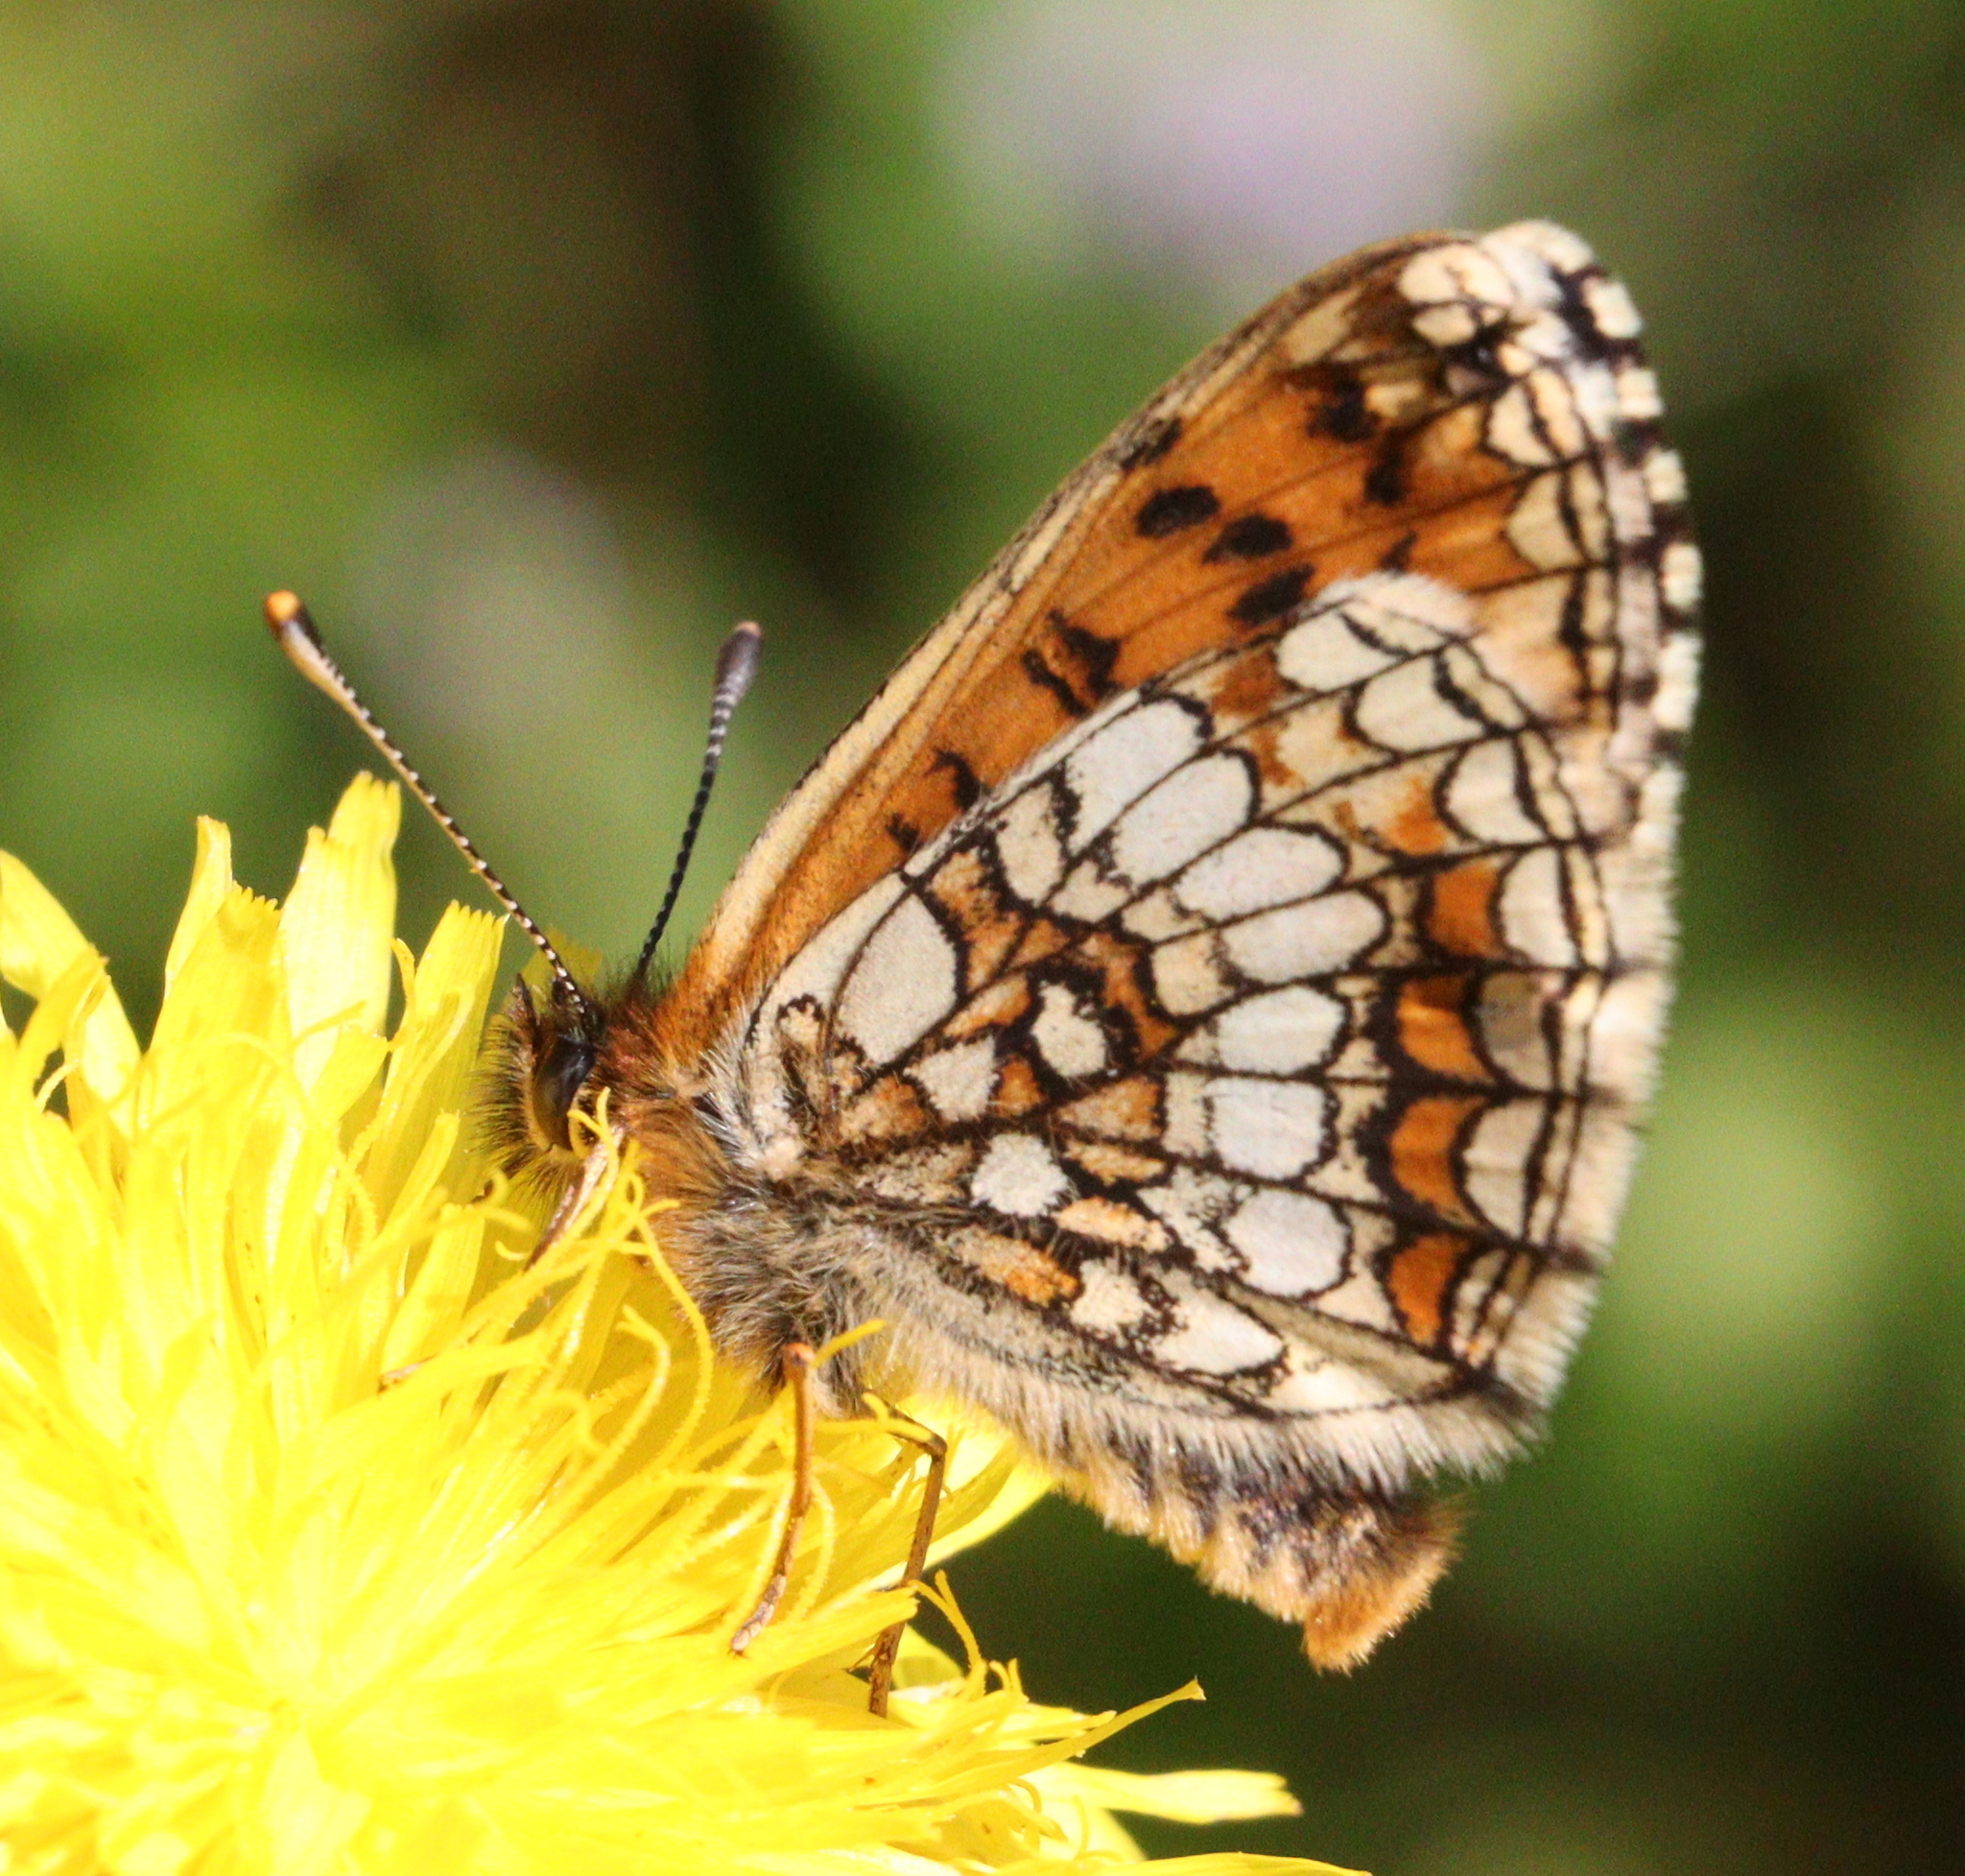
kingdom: Animalia
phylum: Arthropoda
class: Insecta
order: Lepidoptera
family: Nymphalidae
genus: Melitaea
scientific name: Melitaea athalia
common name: Heath fritillary
